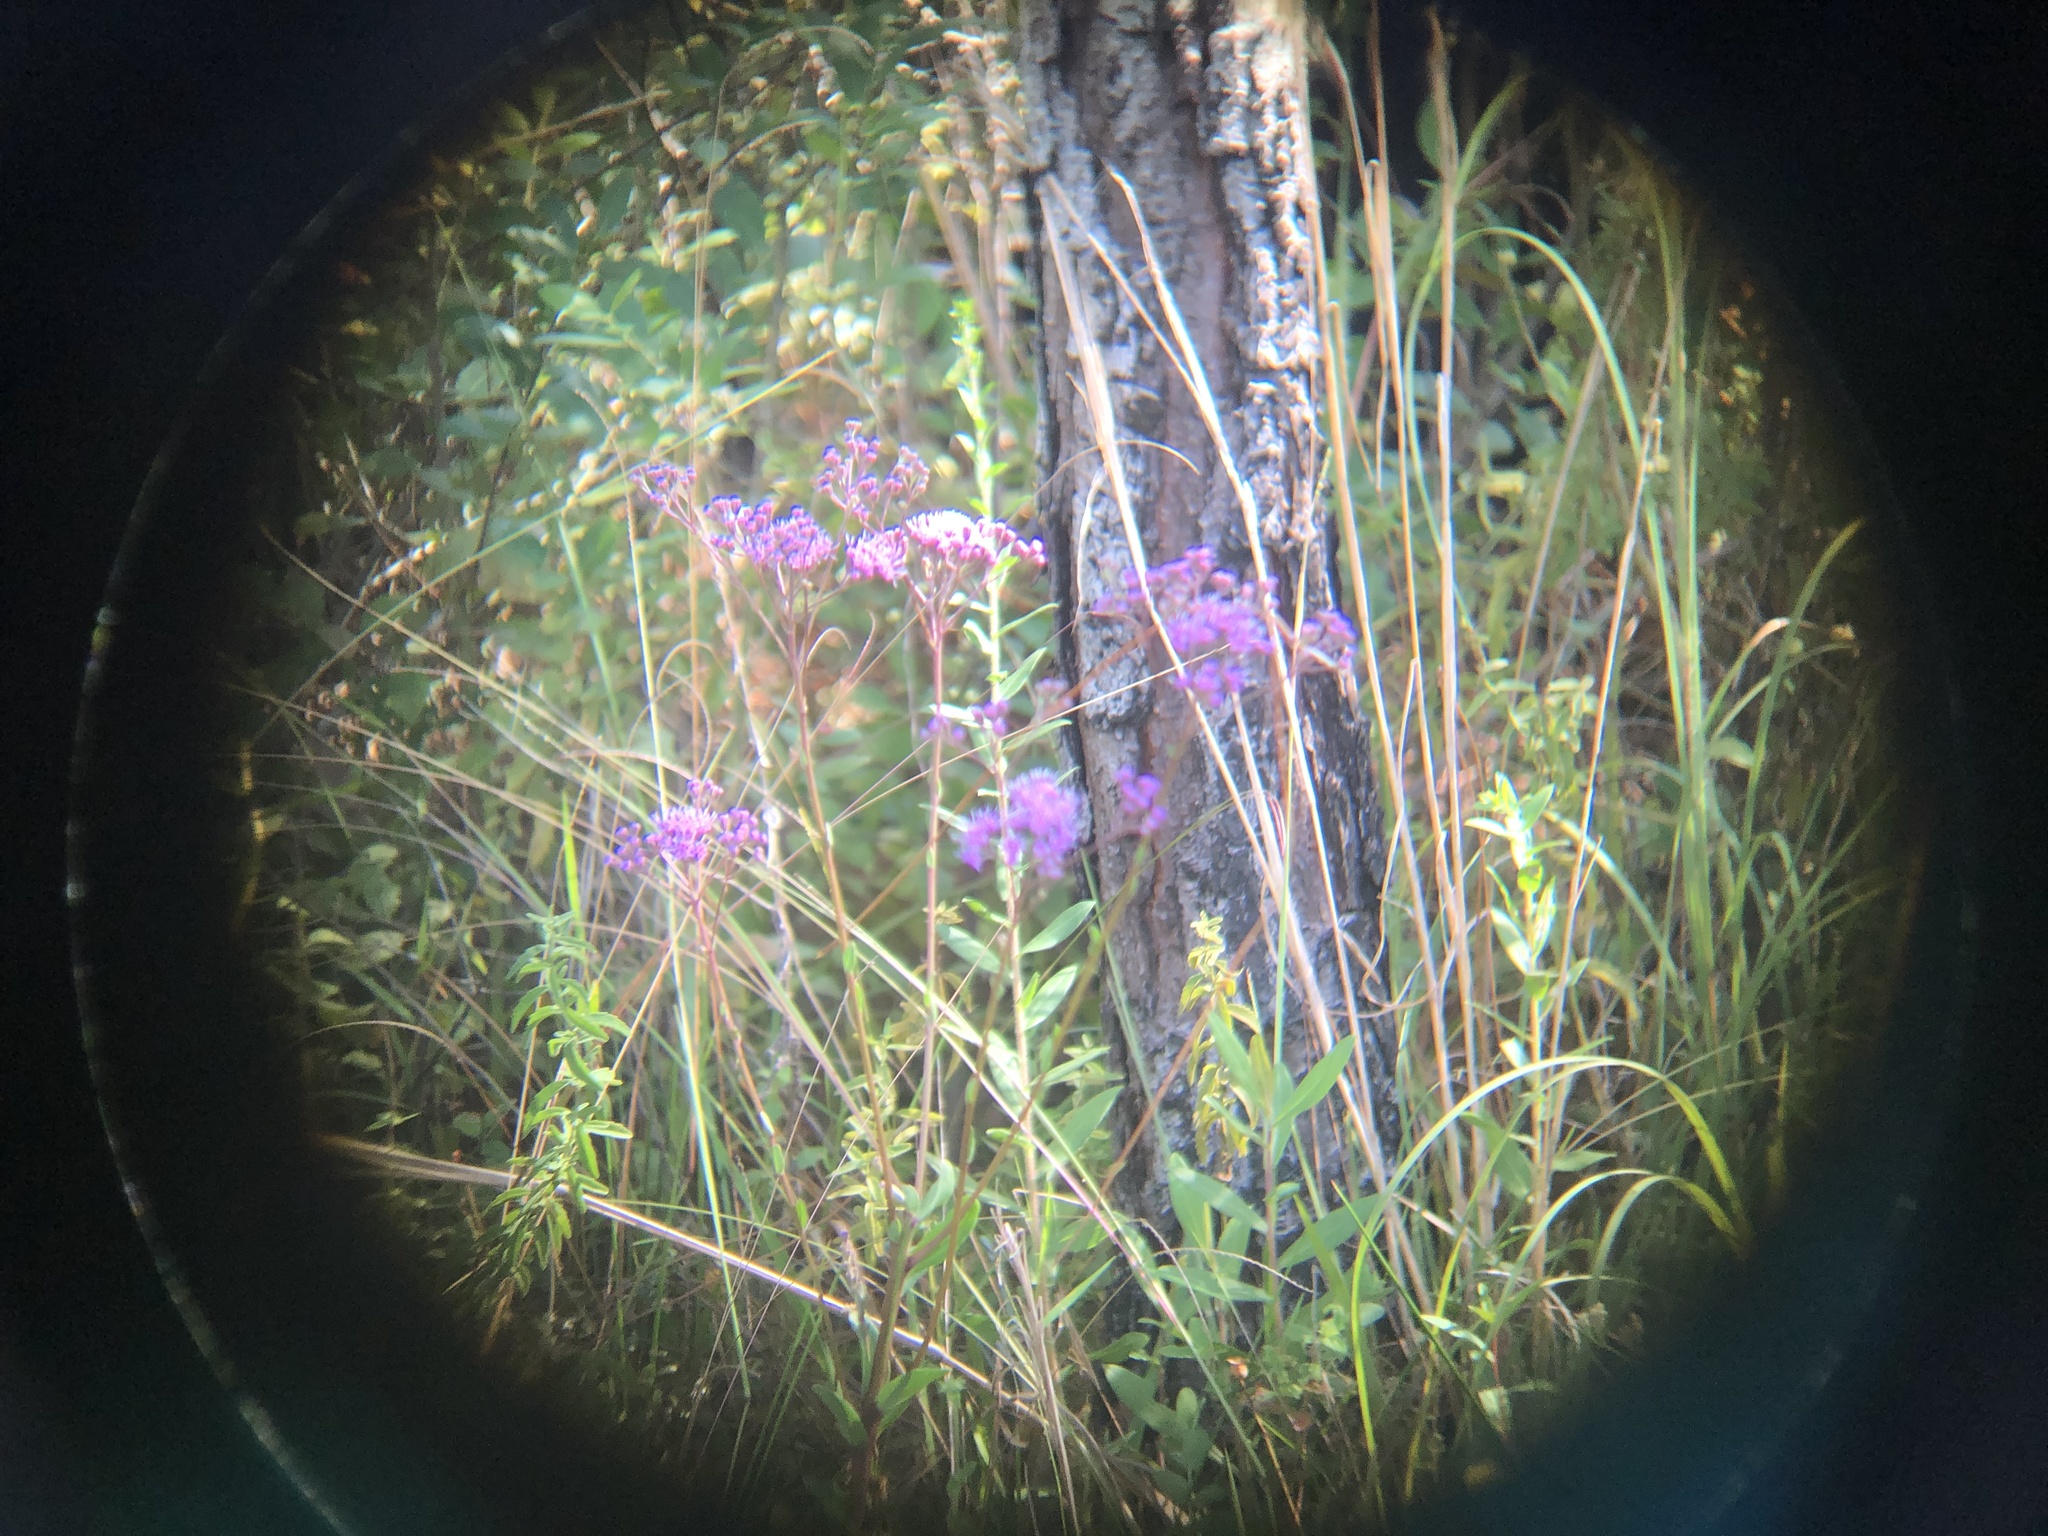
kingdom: Plantae
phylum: Tracheophyta
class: Magnoliopsida
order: Asterales
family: Asteraceae
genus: Carphephorus
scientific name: Carphephorus odoratissimus
